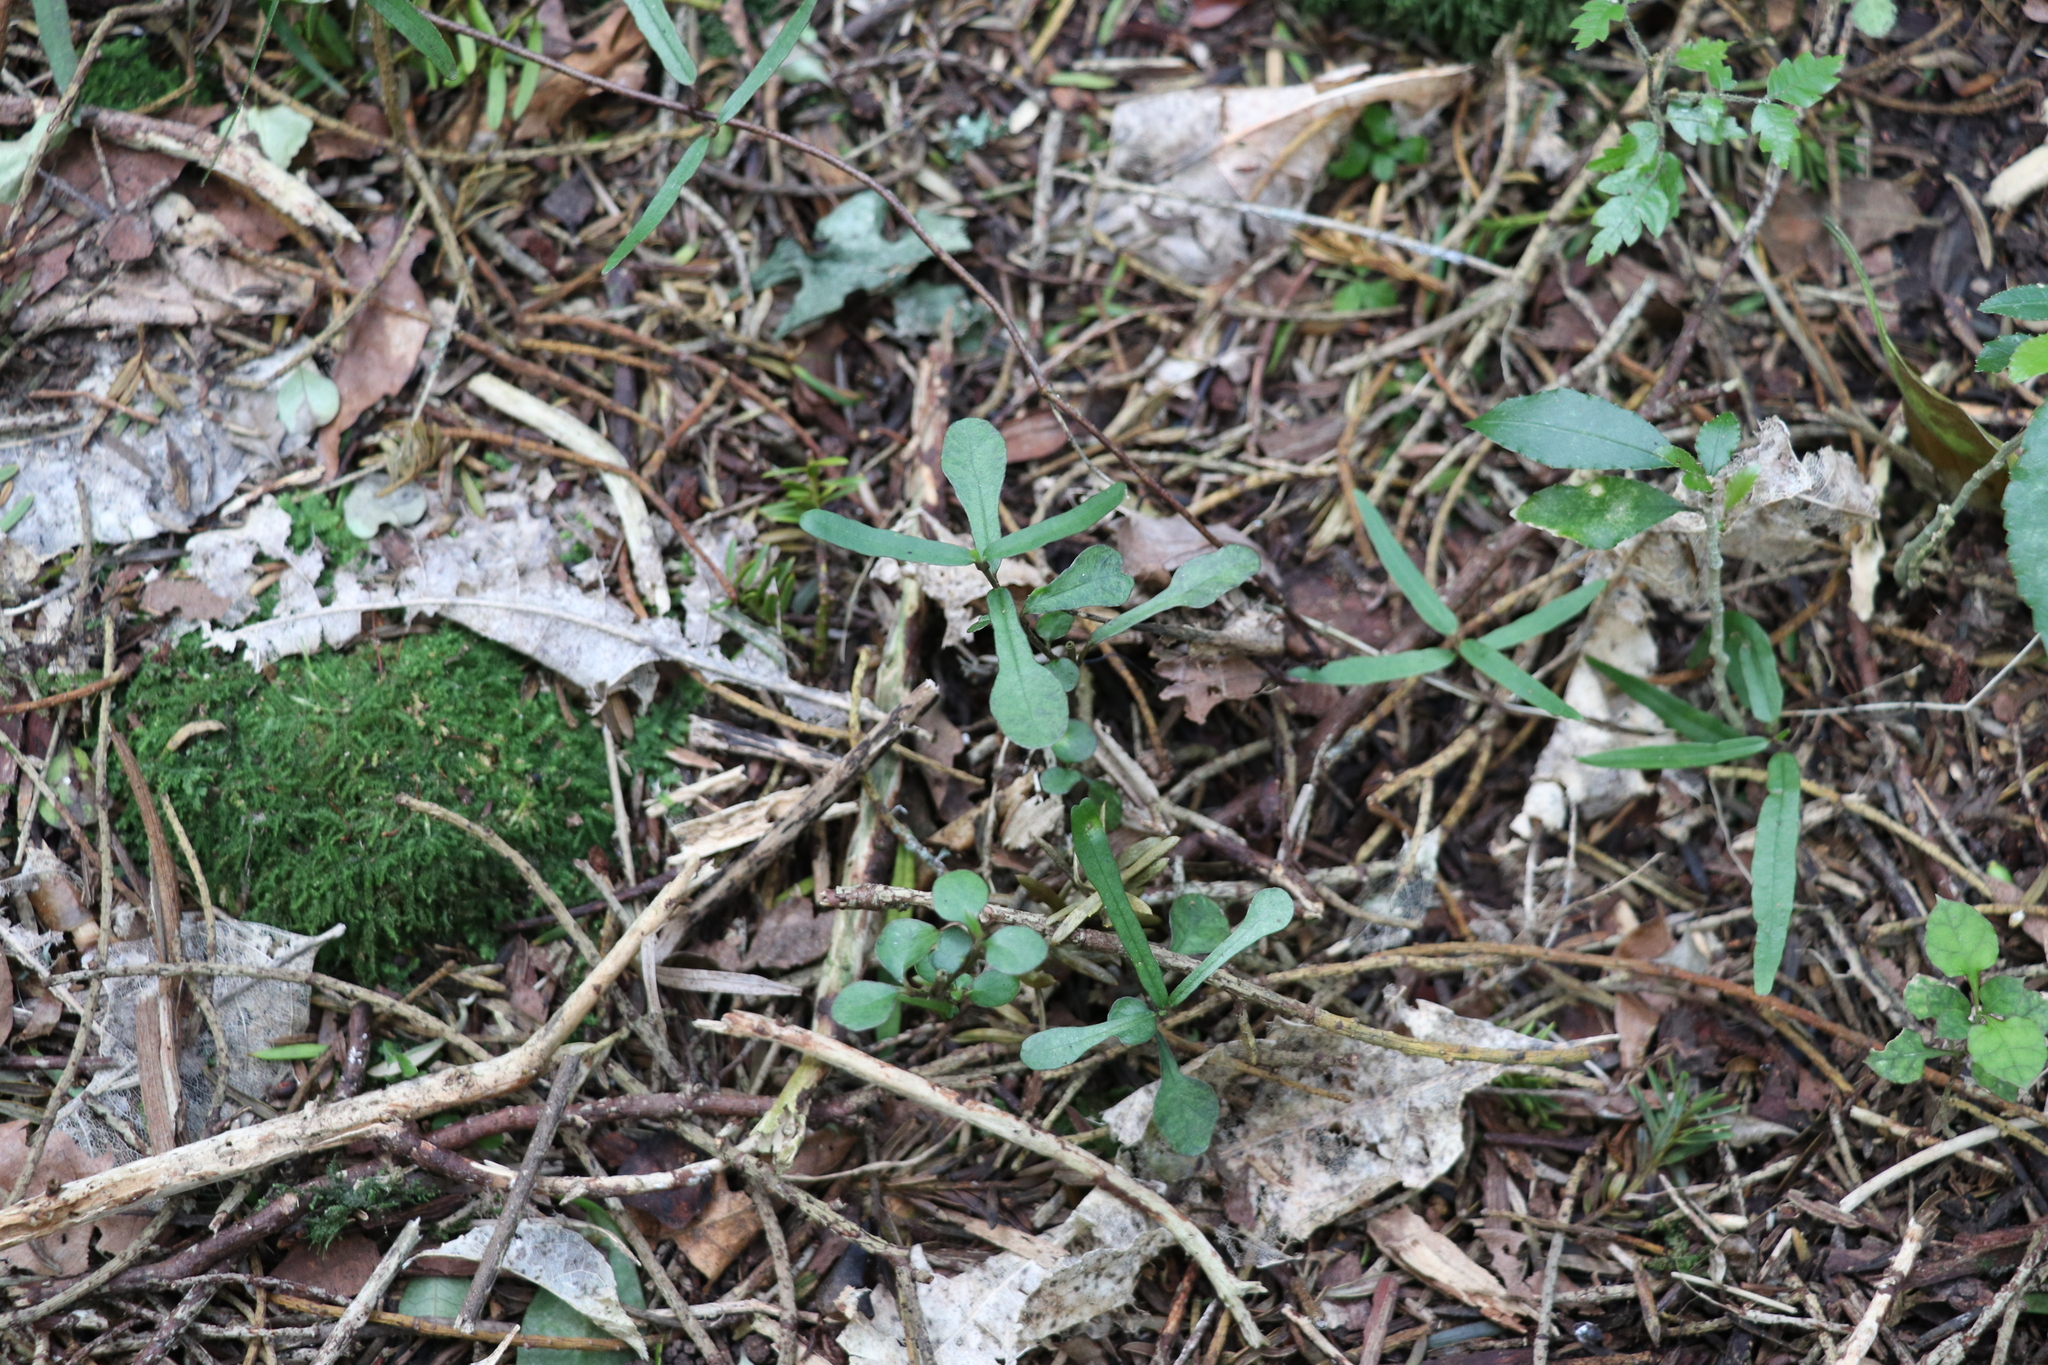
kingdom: Plantae
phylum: Tracheophyta
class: Magnoliopsida
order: Gentianales
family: Apocynaceae
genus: Parsonsia
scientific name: Parsonsia heterophylla
